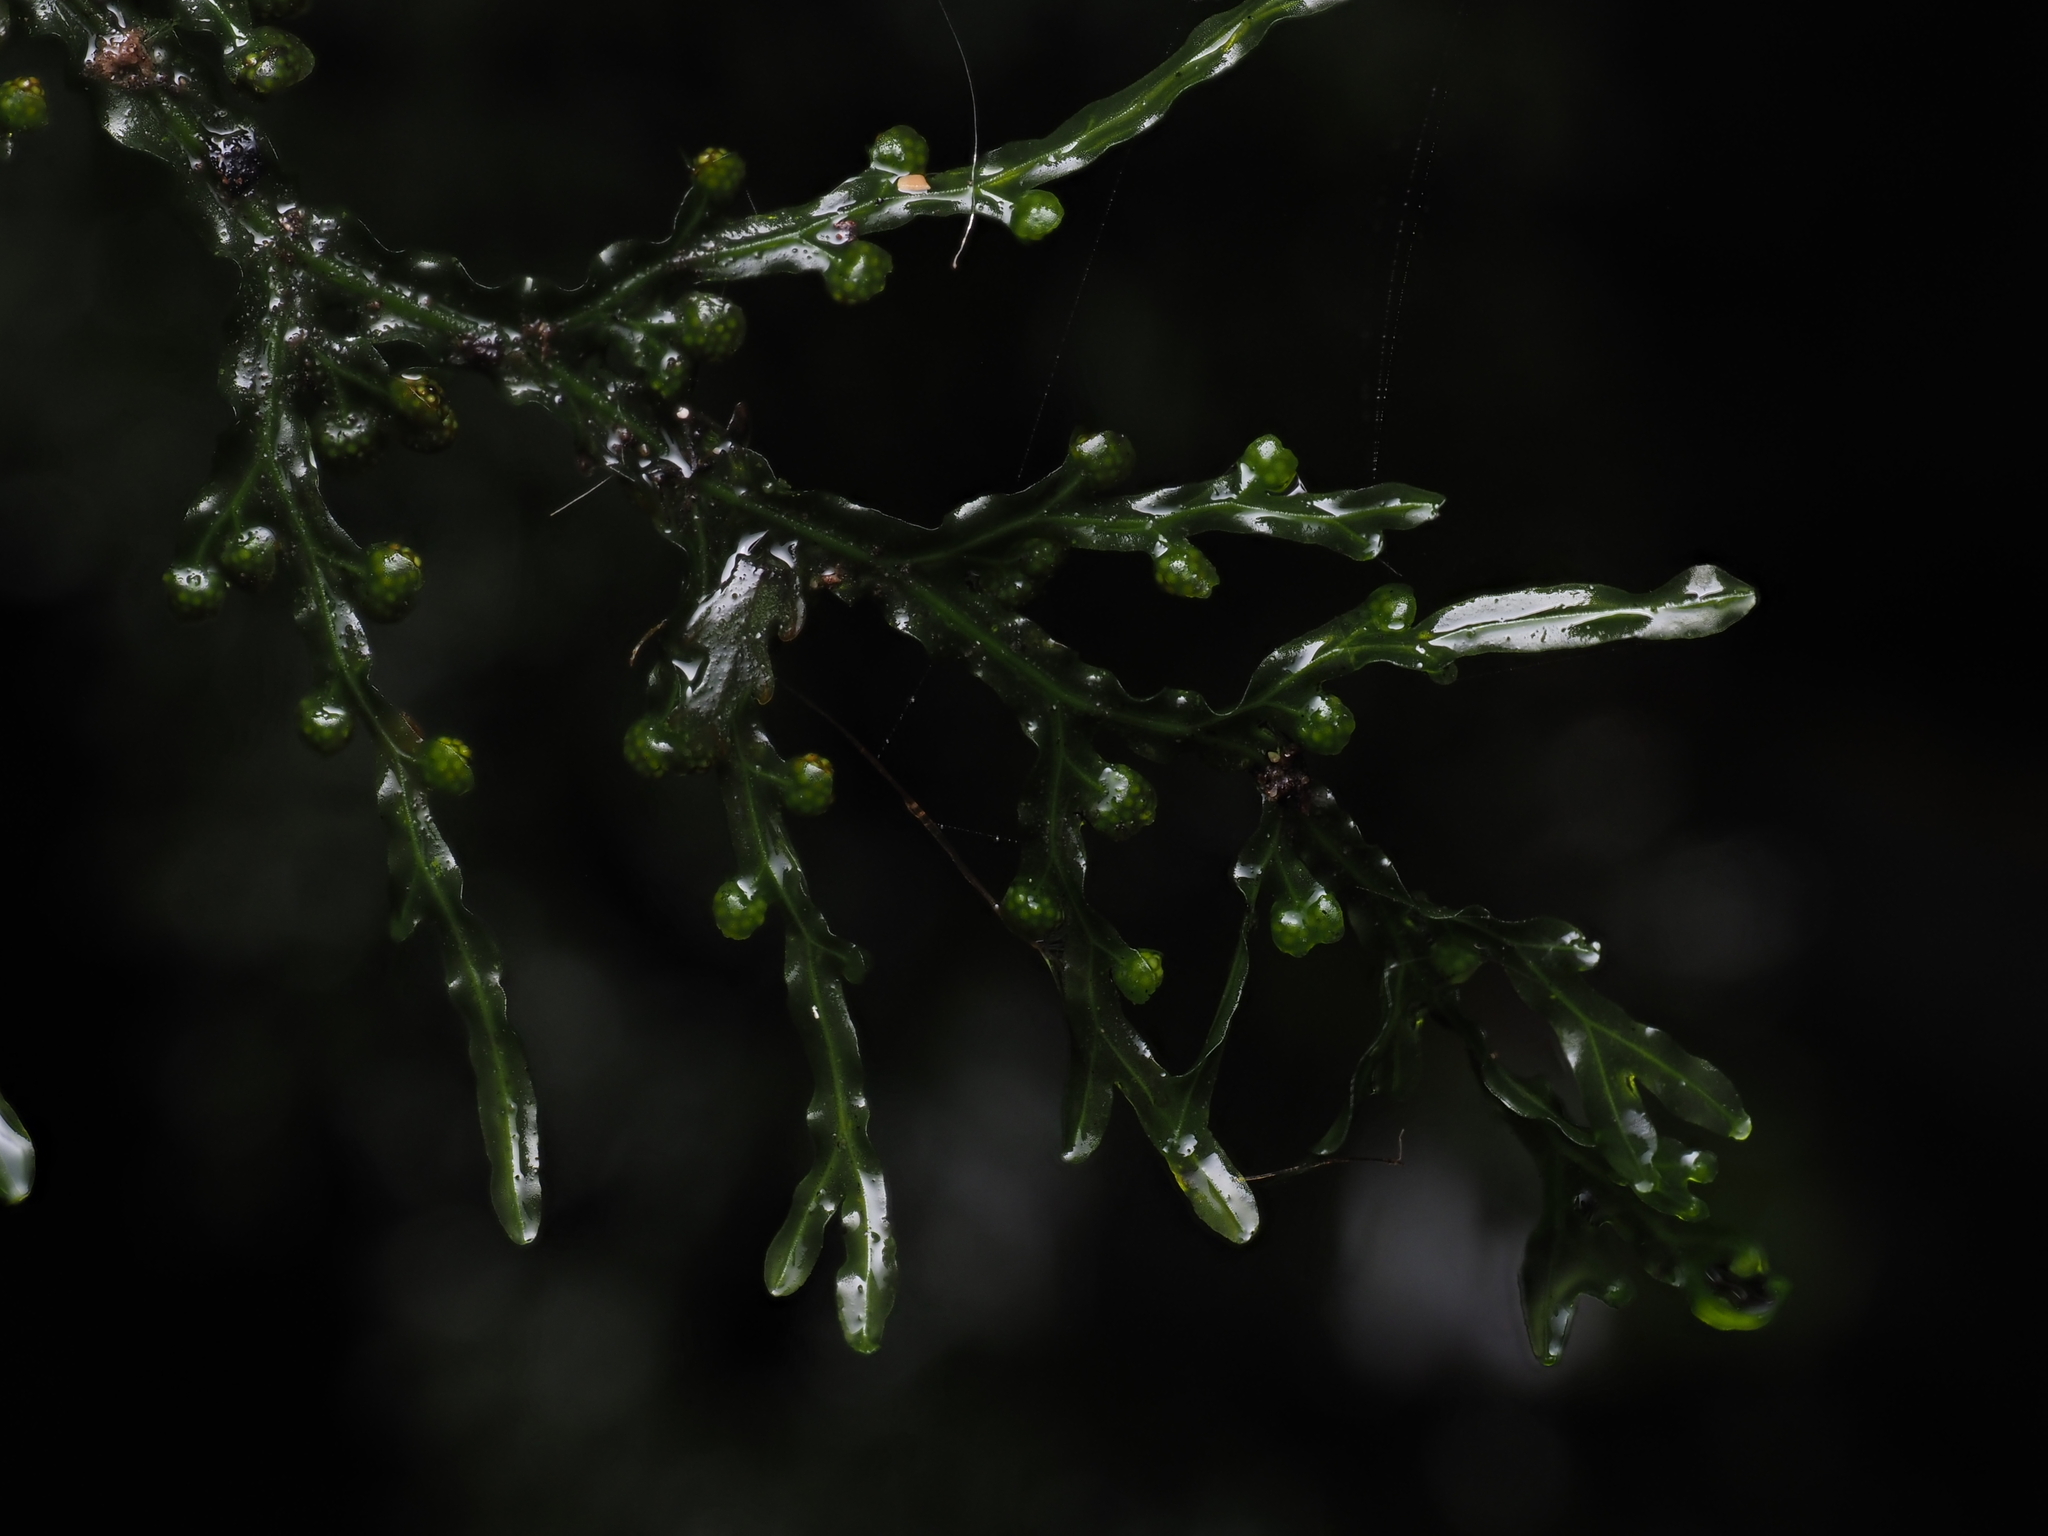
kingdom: Plantae
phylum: Tracheophyta
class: Polypodiopsida
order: Hymenophyllales
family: Hymenophyllaceae
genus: Hymenophyllum
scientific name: Hymenophyllum flexuosum
